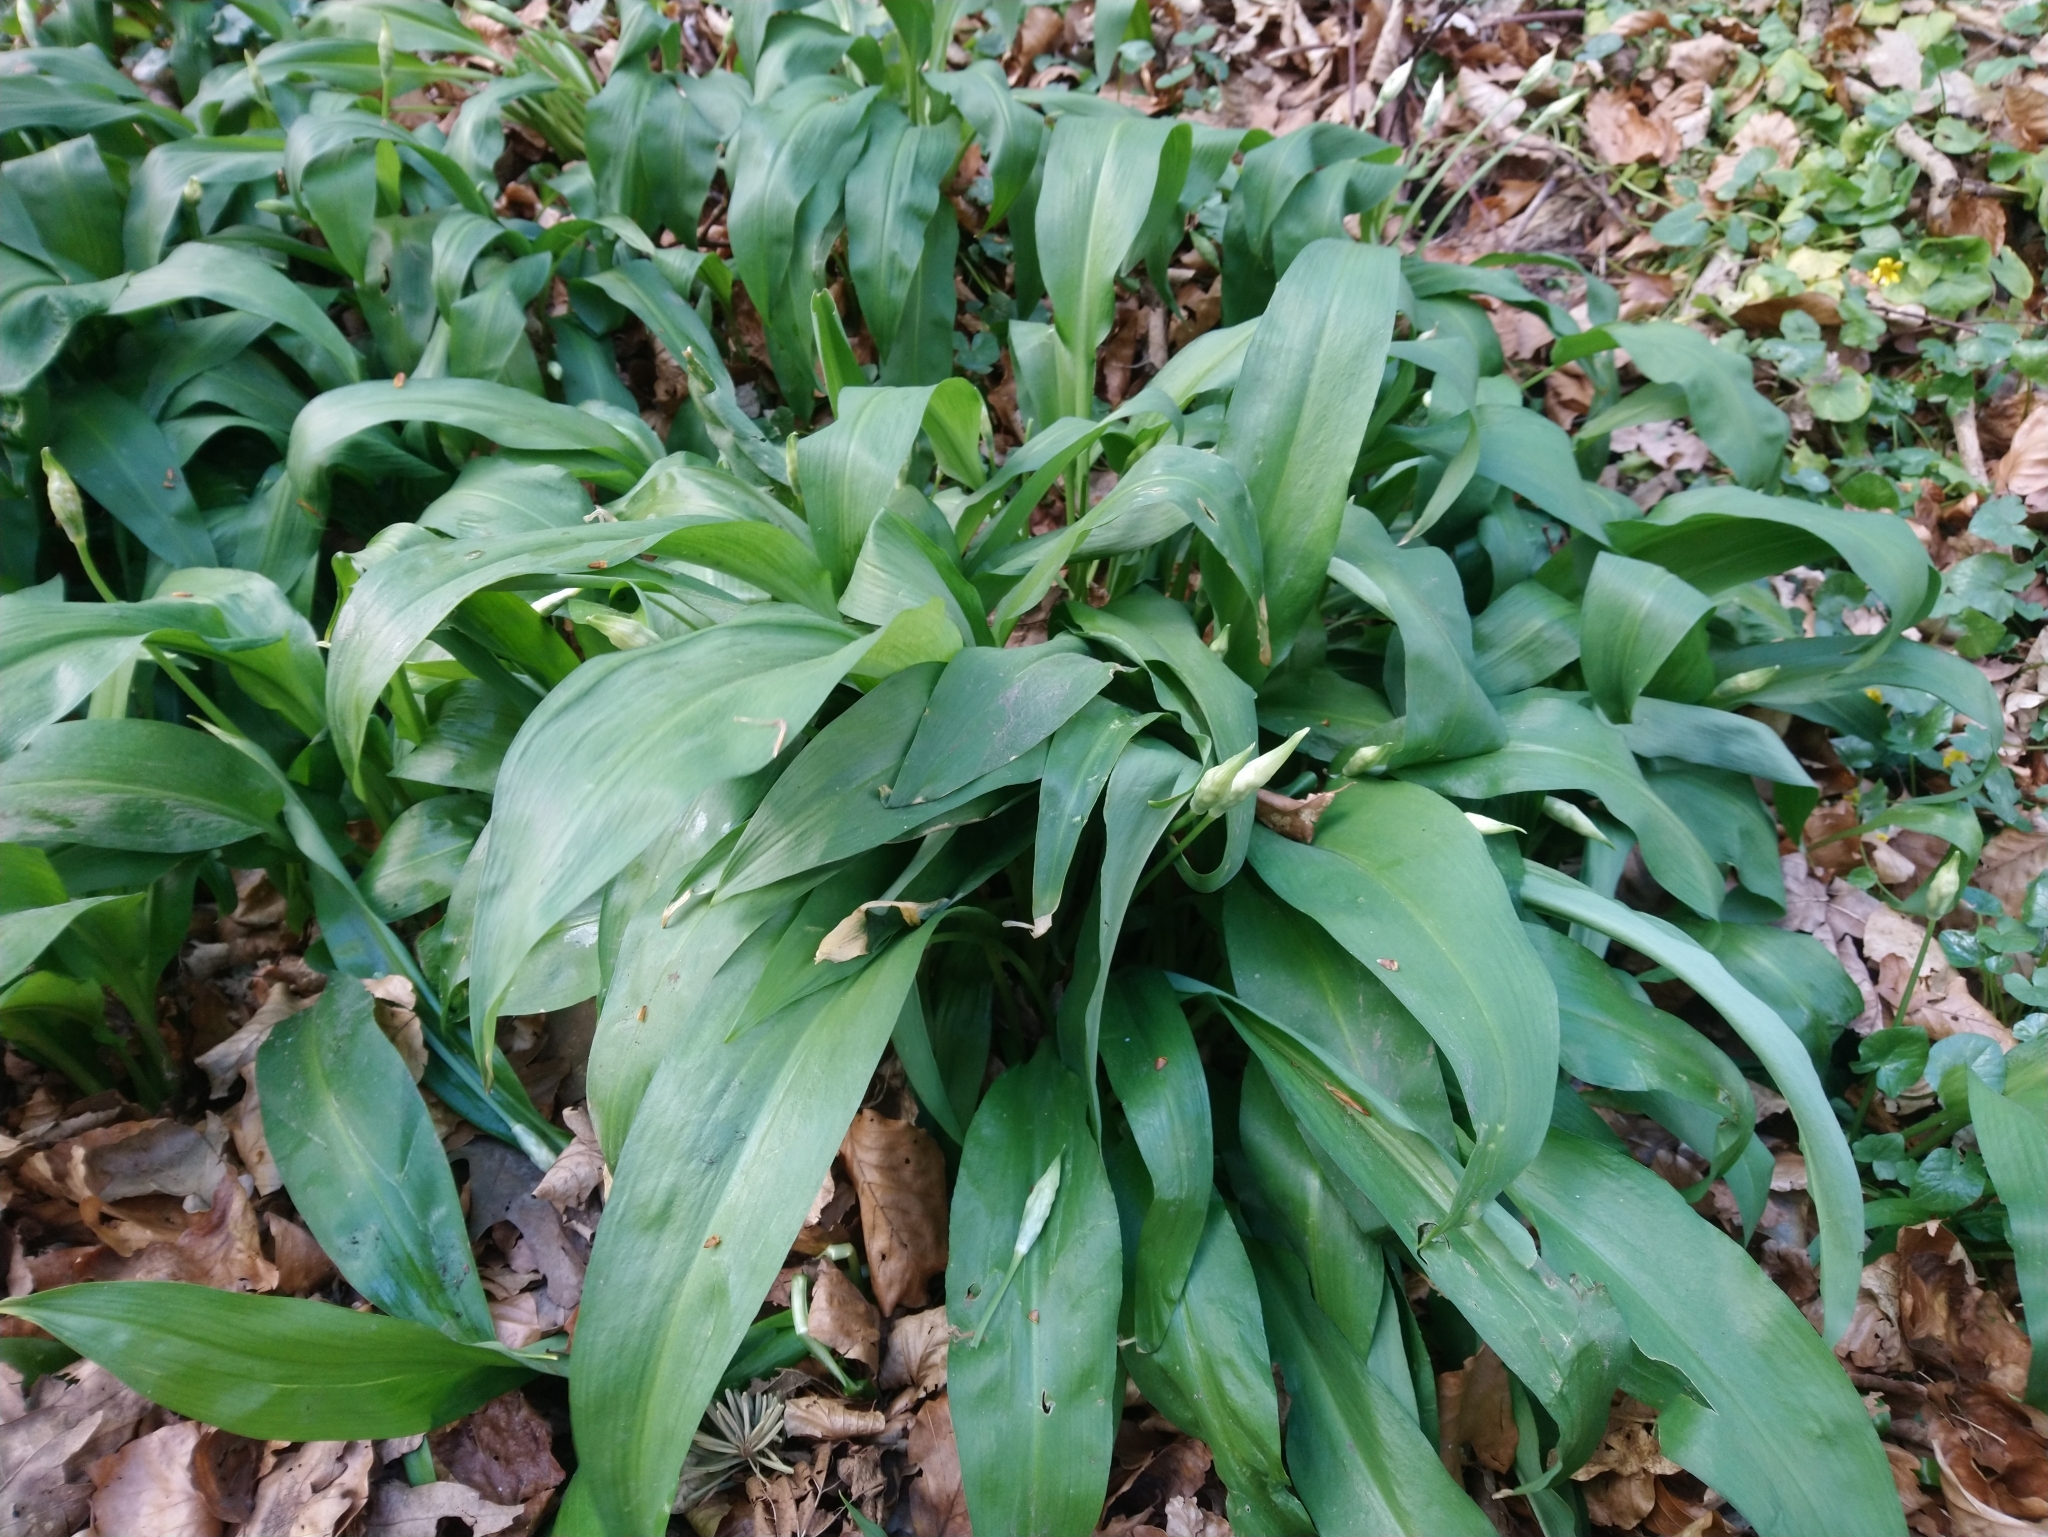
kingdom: Plantae
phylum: Tracheophyta
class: Liliopsida
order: Asparagales
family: Amaryllidaceae
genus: Allium
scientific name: Allium ursinum
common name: Ramsons
